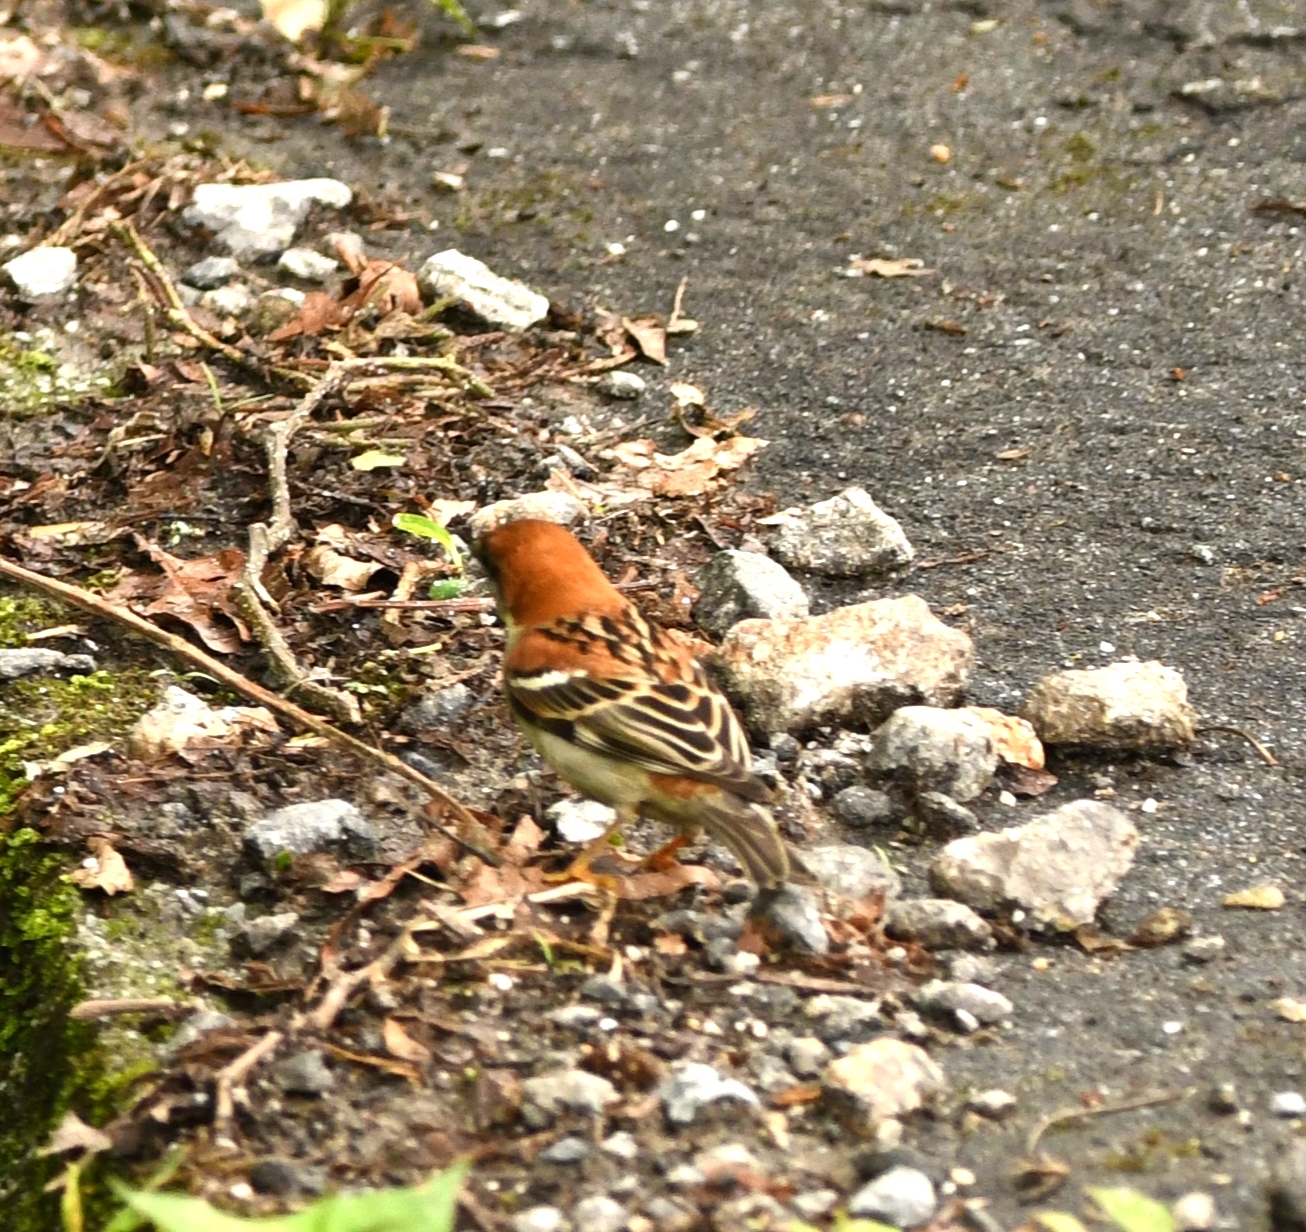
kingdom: Animalia
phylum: Chordata
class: Aves
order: Passeriformes
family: Passeridae
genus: Passer
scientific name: Passer cinnamomeus
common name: Russet sparrow
